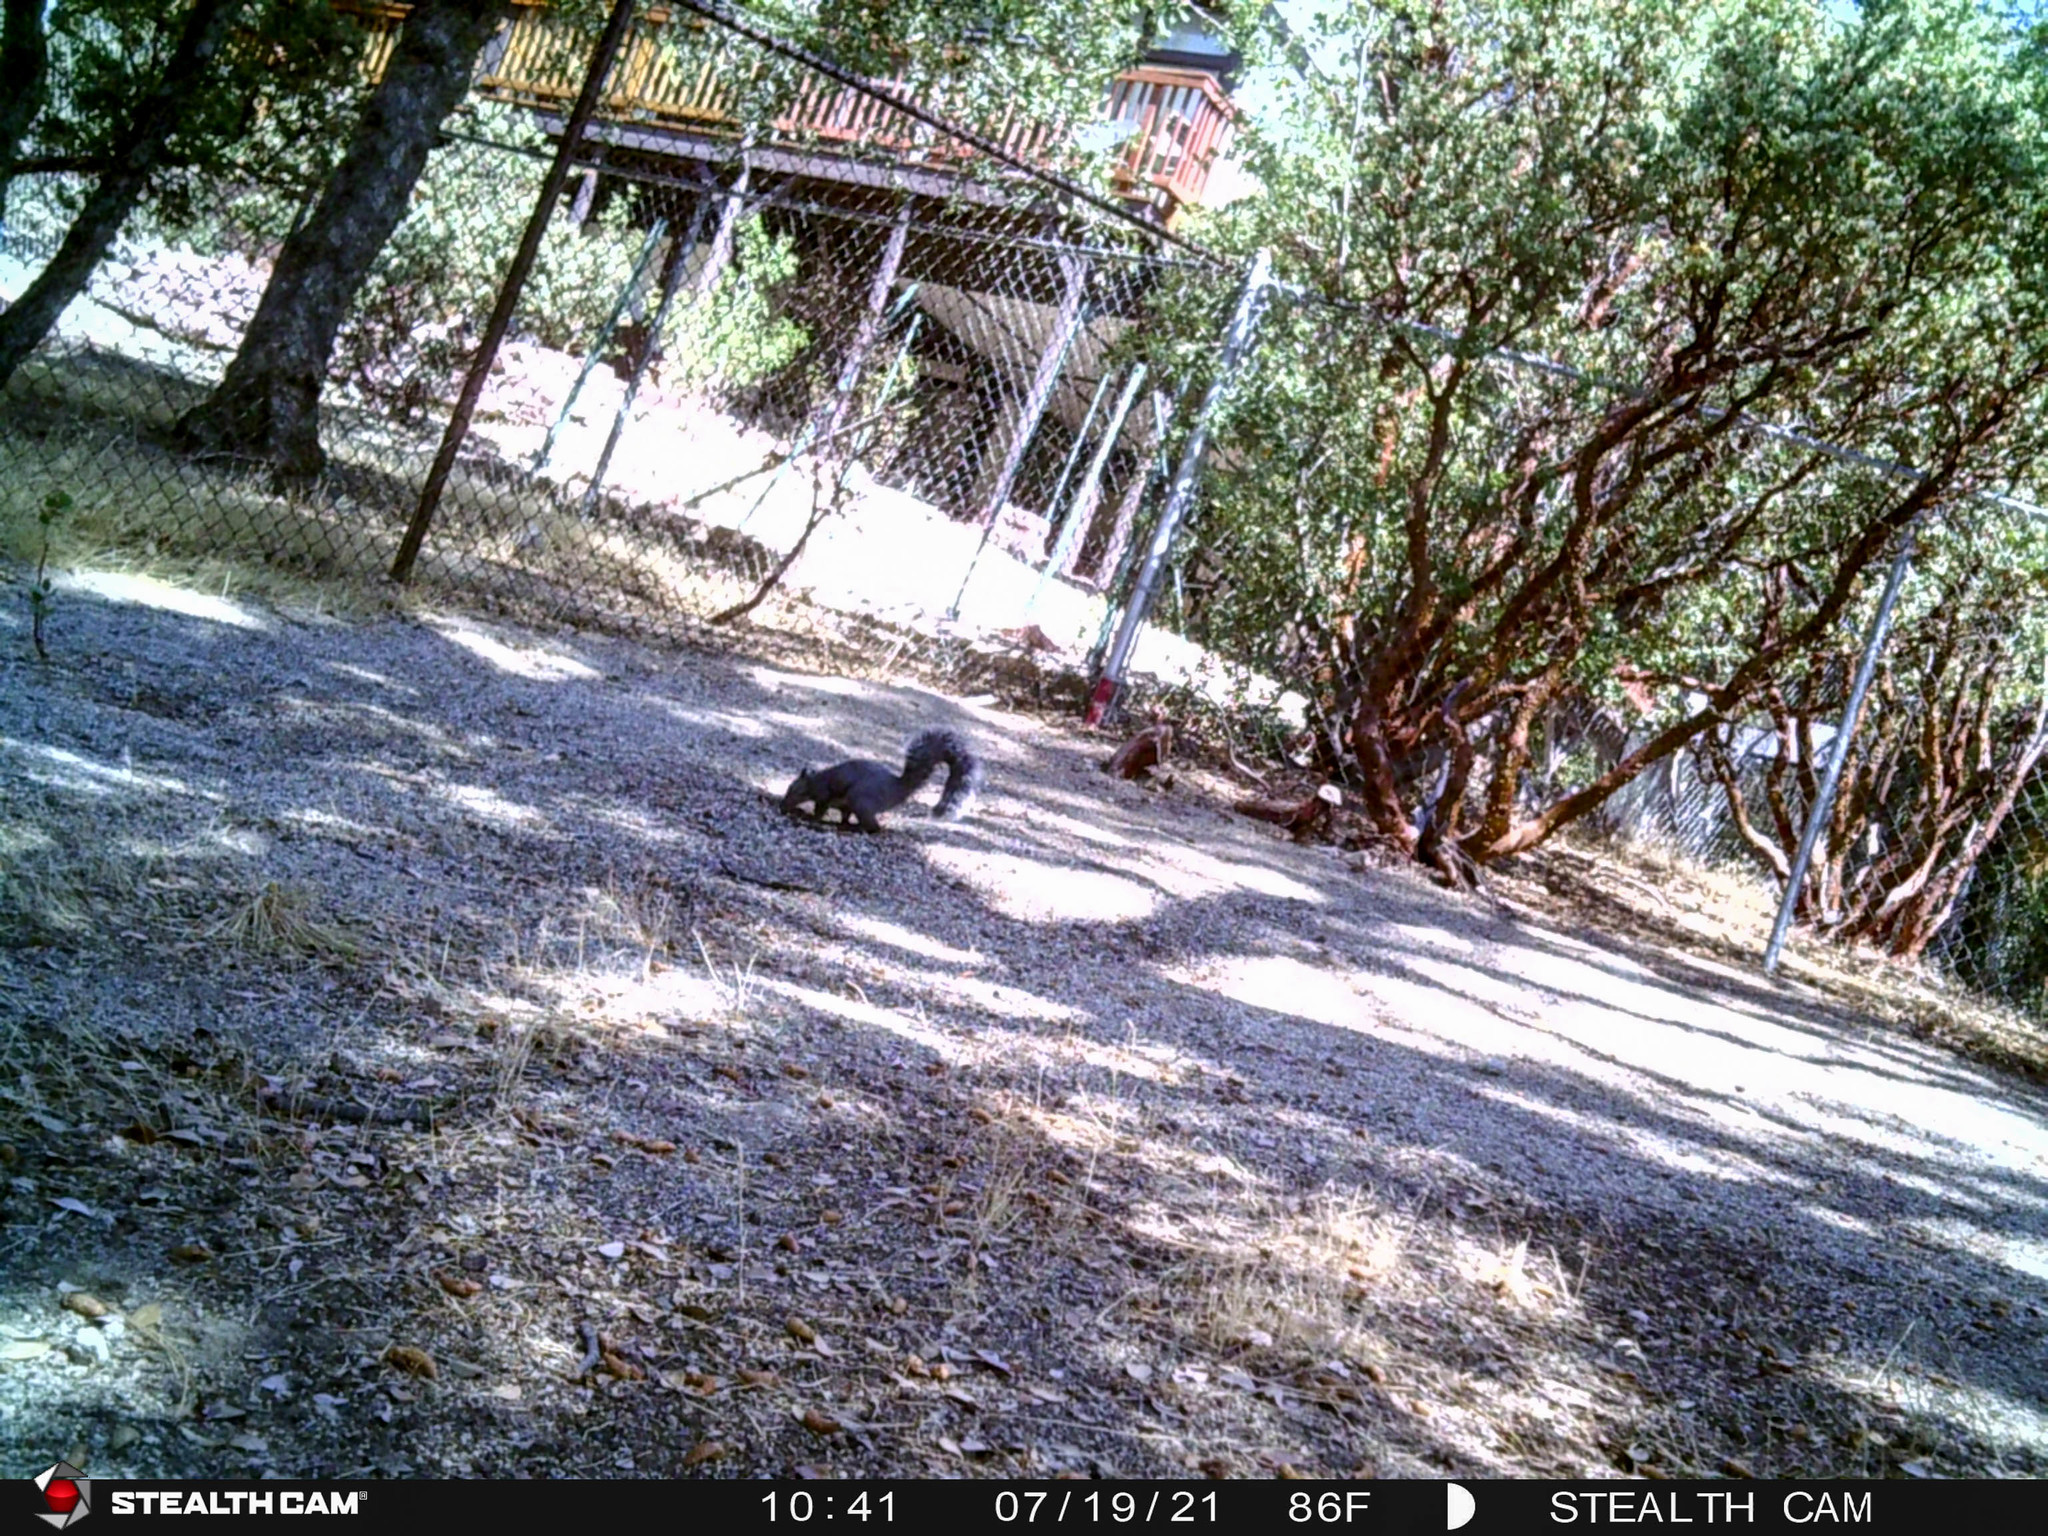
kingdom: Animalia
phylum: Chordata
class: Mammalia
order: Rodentia
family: Sciuridae
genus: Sciurus
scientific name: Sciurus griseus
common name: Western gray squirrel
